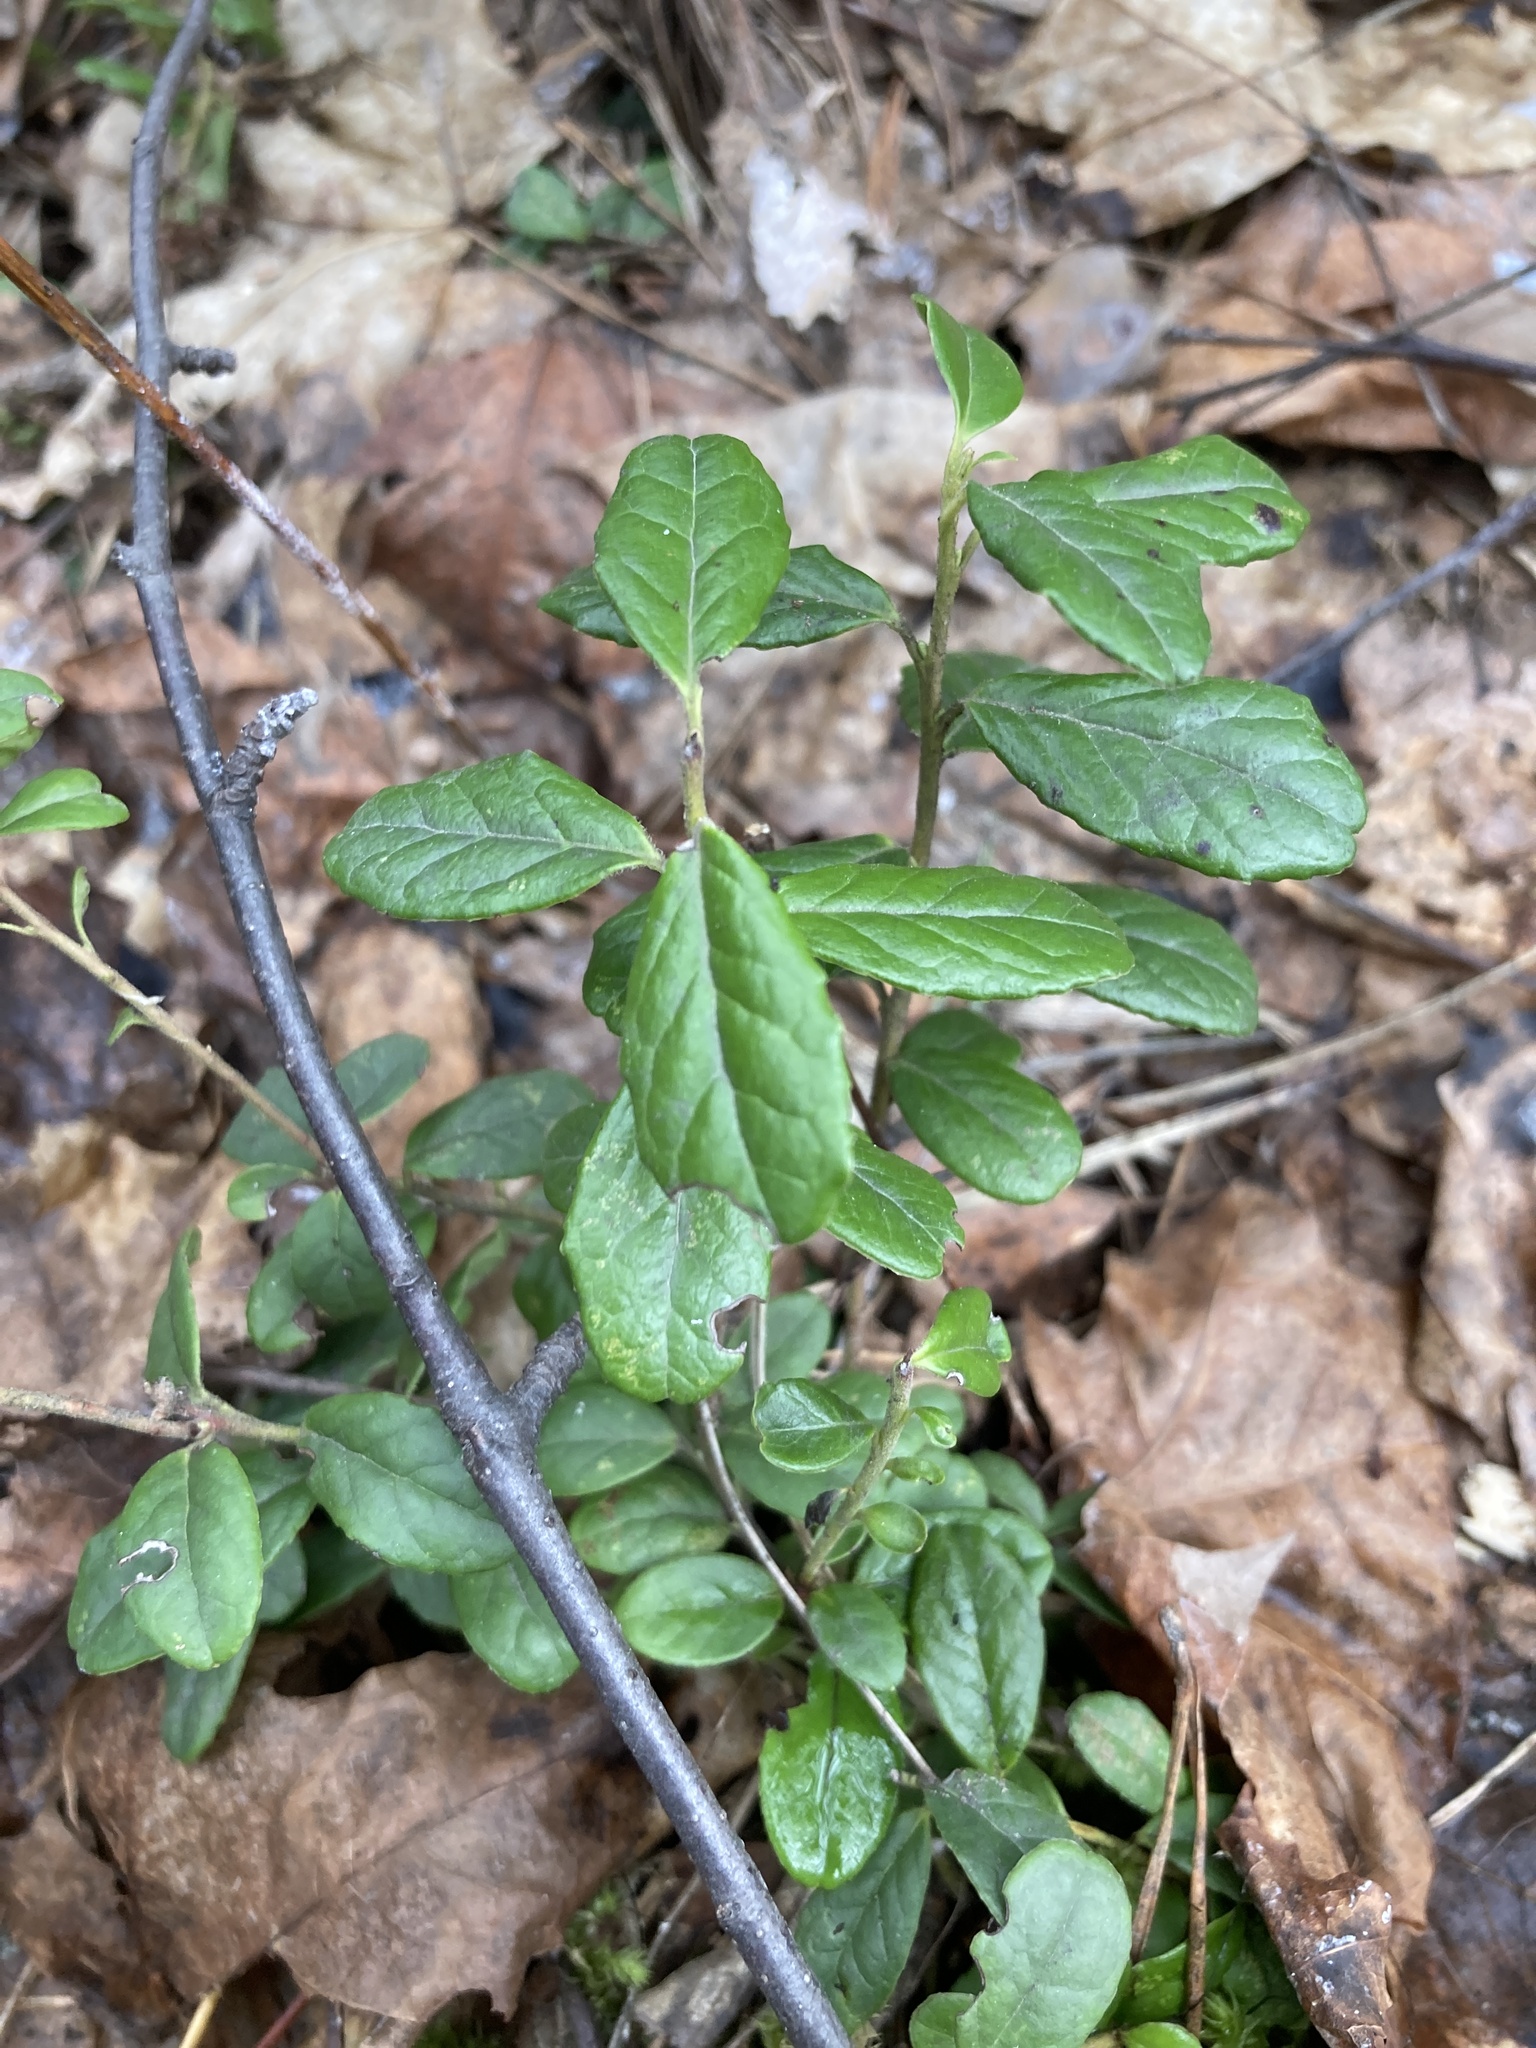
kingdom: Plantae
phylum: Tracheophyta
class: Magnoliopsida
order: Ericales
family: Ericaceae
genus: Vaccinium
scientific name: Vaccinium vitis-idaea
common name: Cowberry
